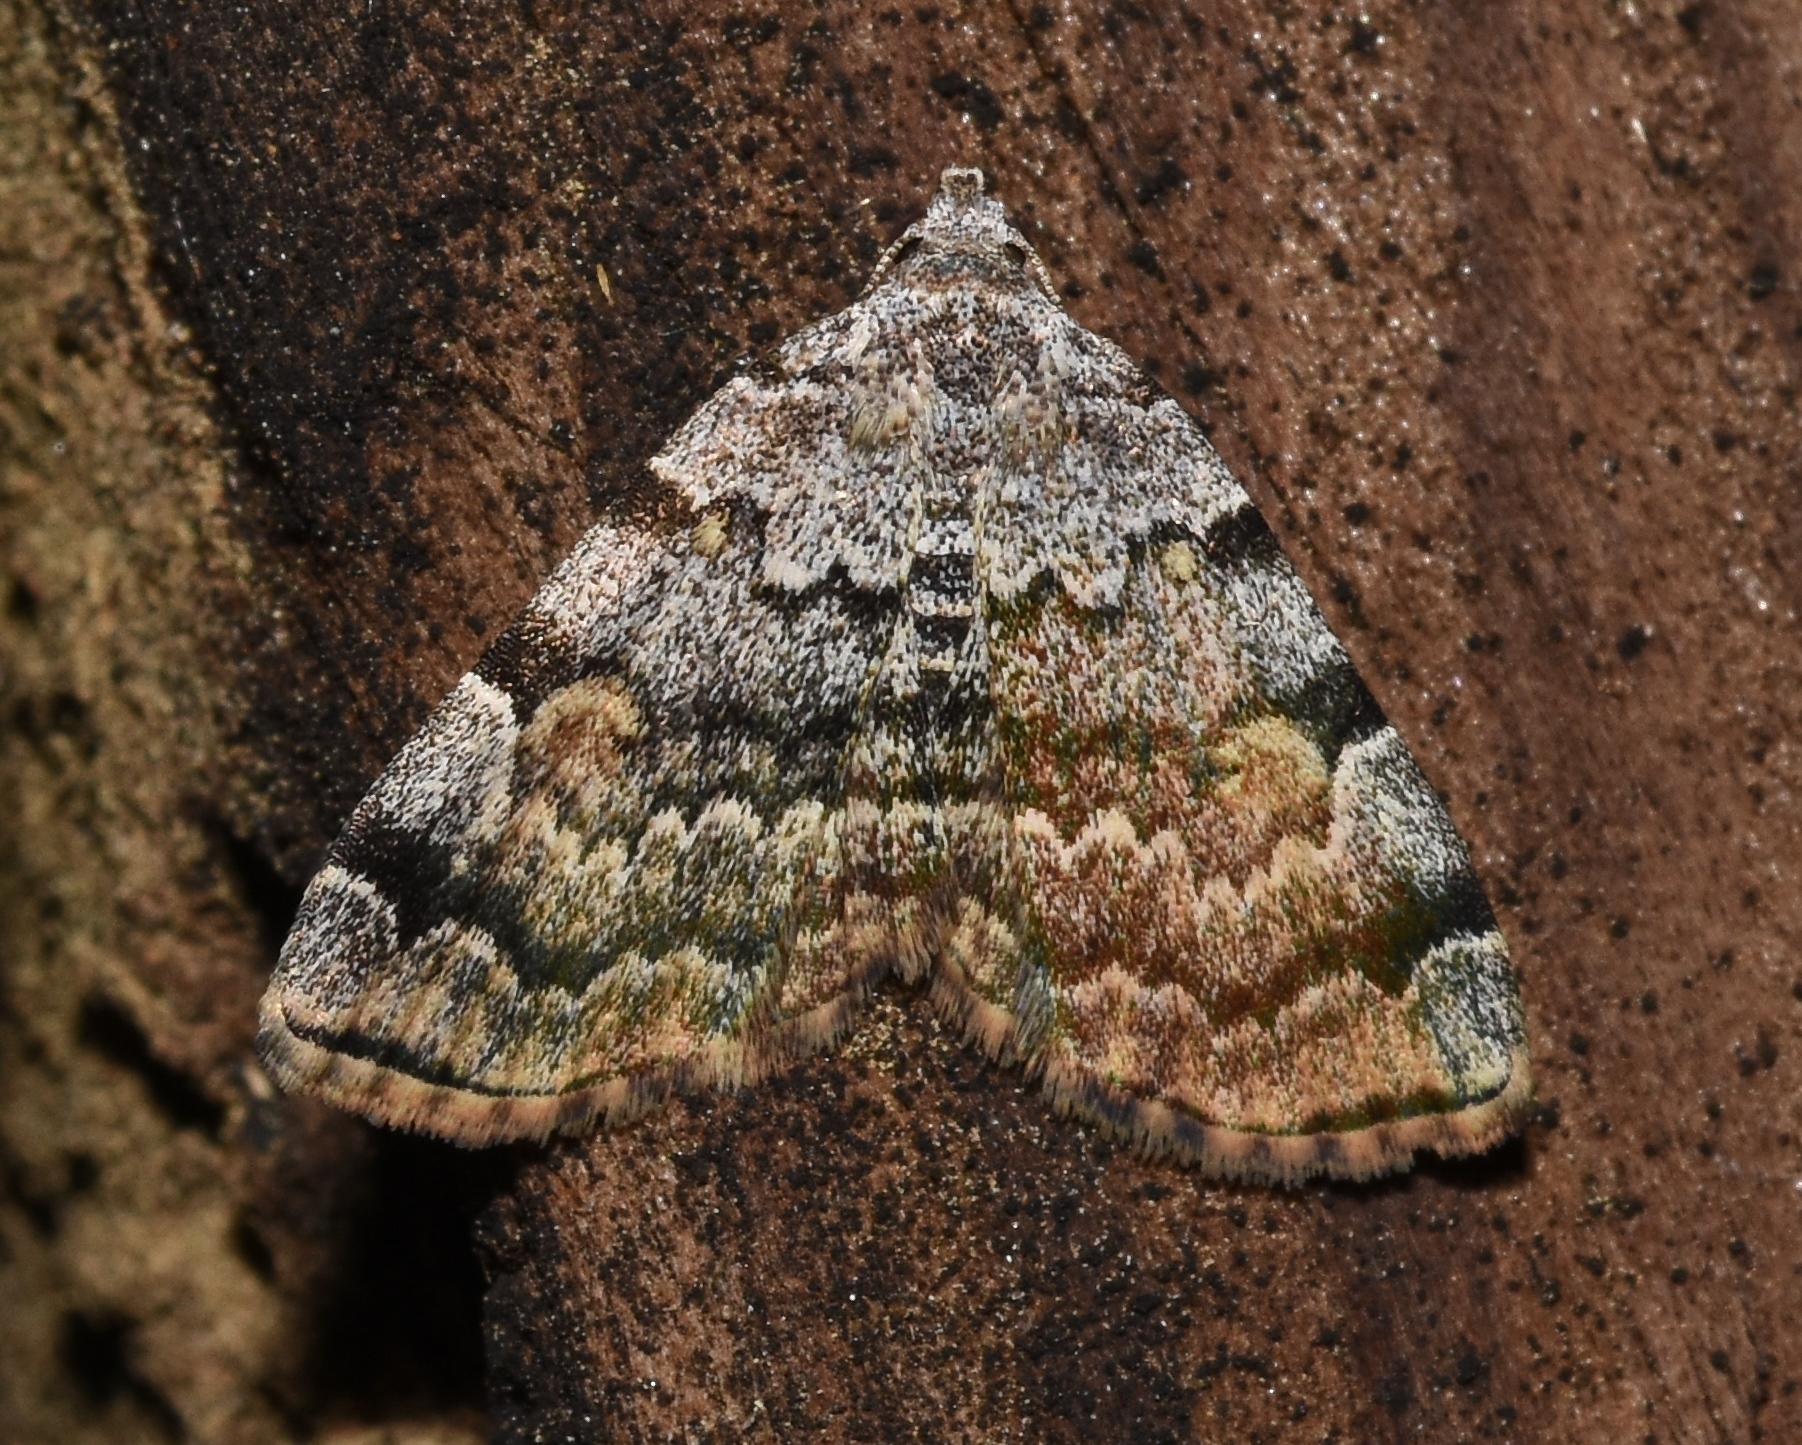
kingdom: Animalia
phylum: Arthropoda
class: Insecta
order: Lepidoptera
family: Erebidae
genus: Idia
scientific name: Idia americalis
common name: American idia moth
